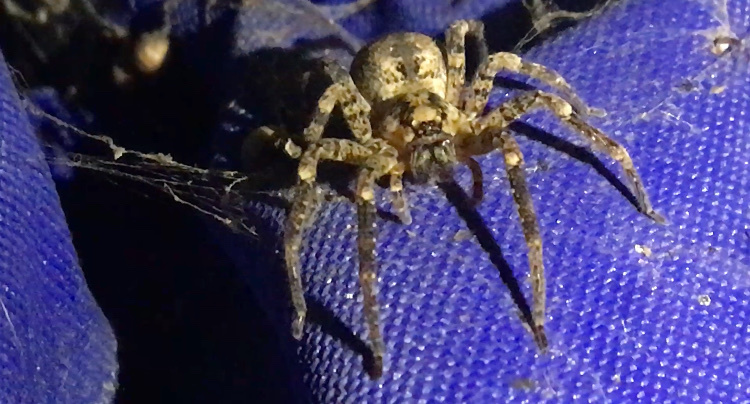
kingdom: Animalia
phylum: Arthropoda
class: Arachnida
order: Araneae
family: Zoropsidae
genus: Zoropsis
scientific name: Zoropsis spinimana
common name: Zoropsid spider
